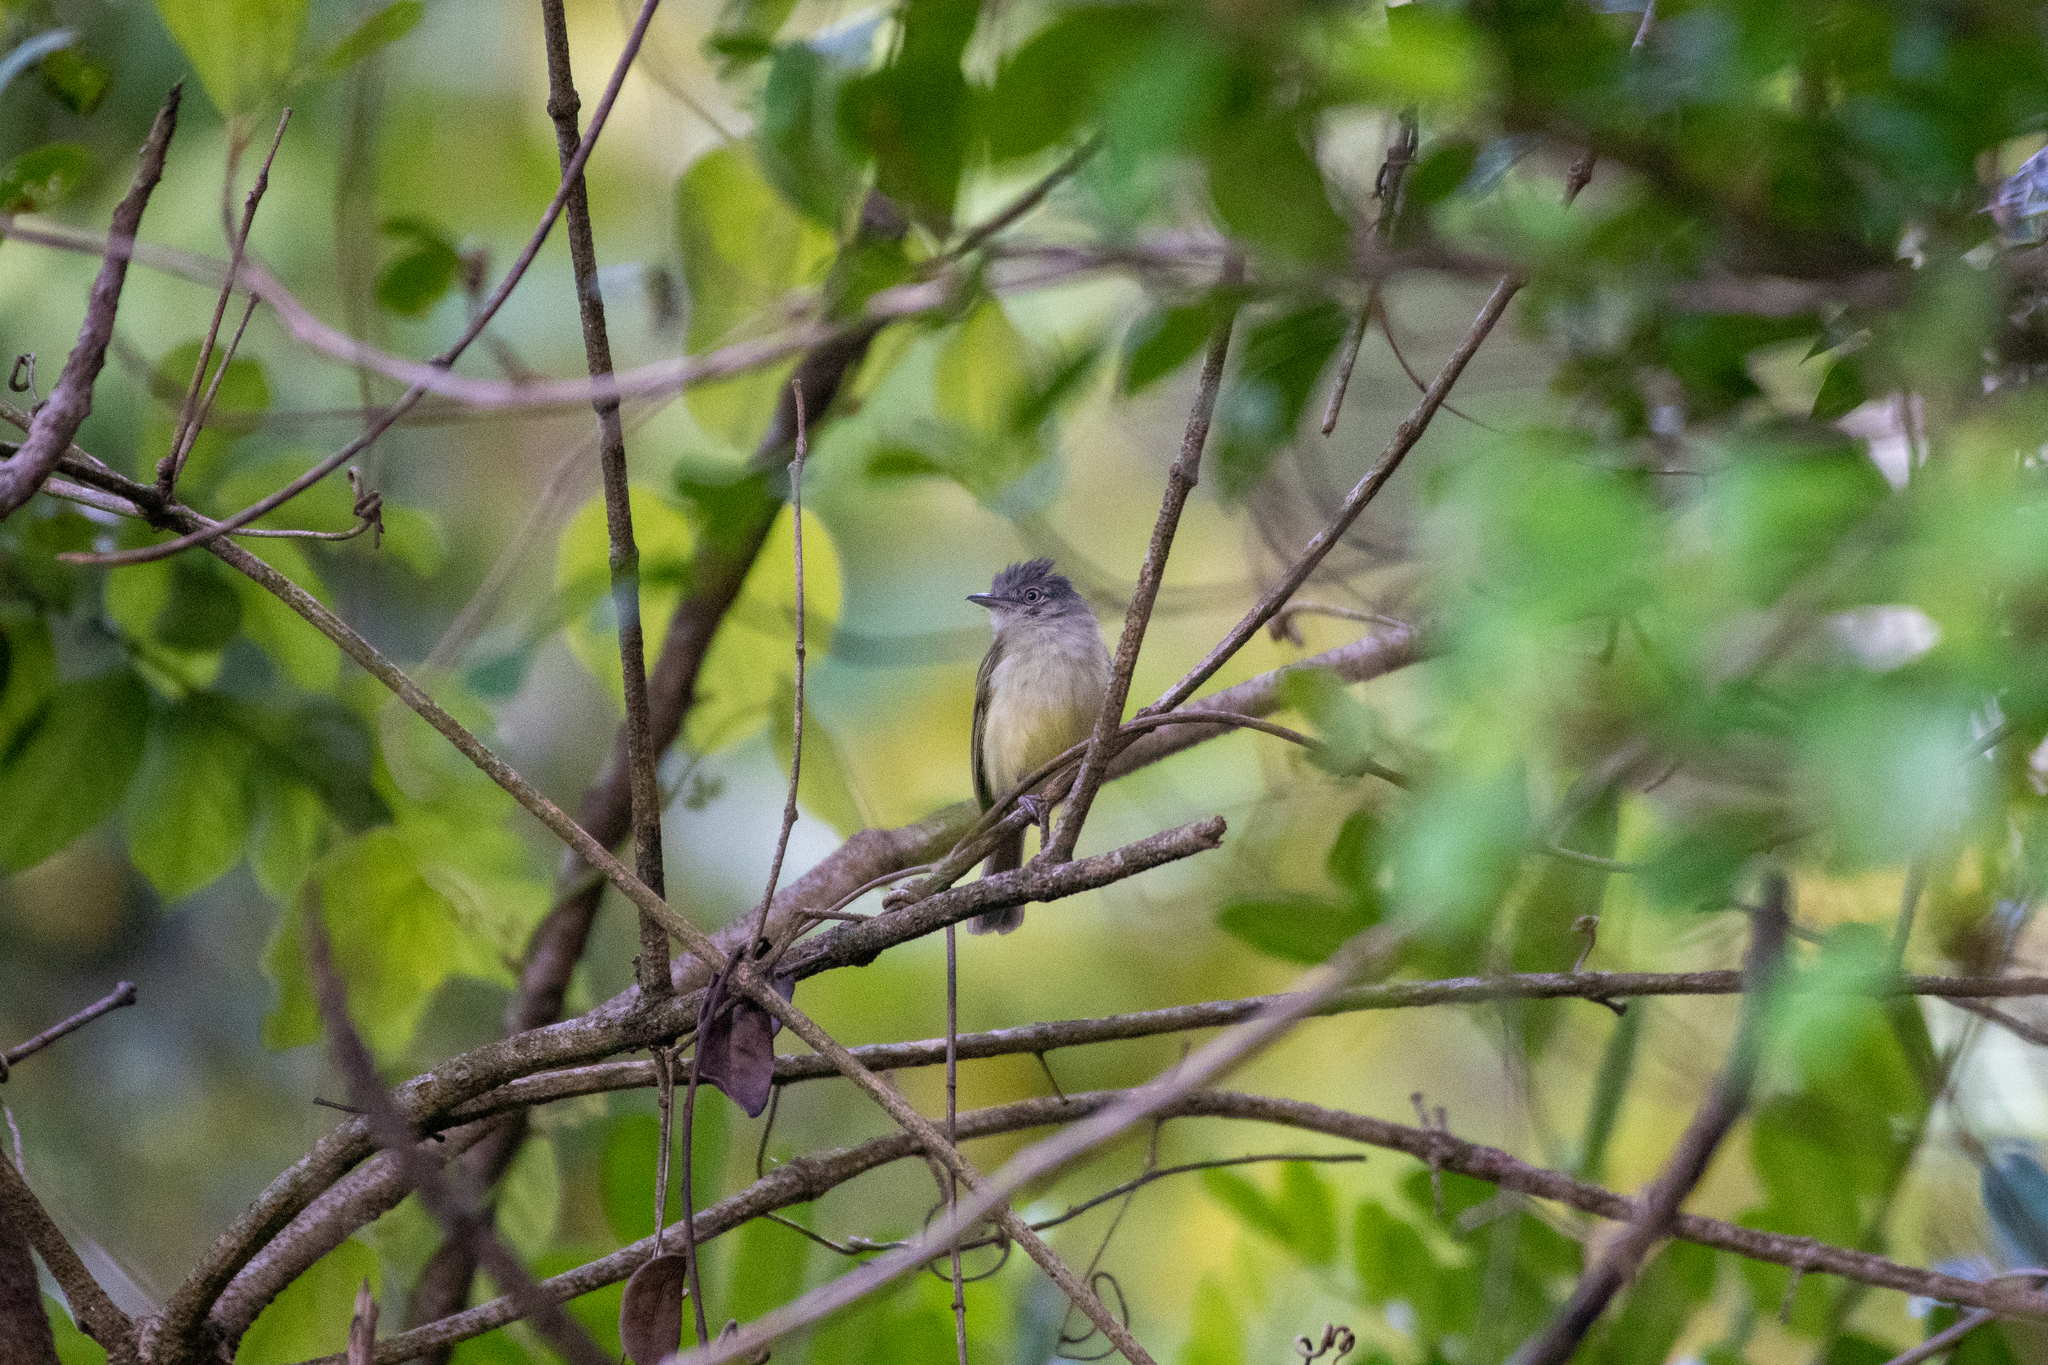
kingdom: Animalia
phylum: Chordata
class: Aves
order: Passeriformes
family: Tyrannidae
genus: Tolmomyias
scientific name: Tolmomyias sulphurescens
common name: Yellow-olive flycatcher
